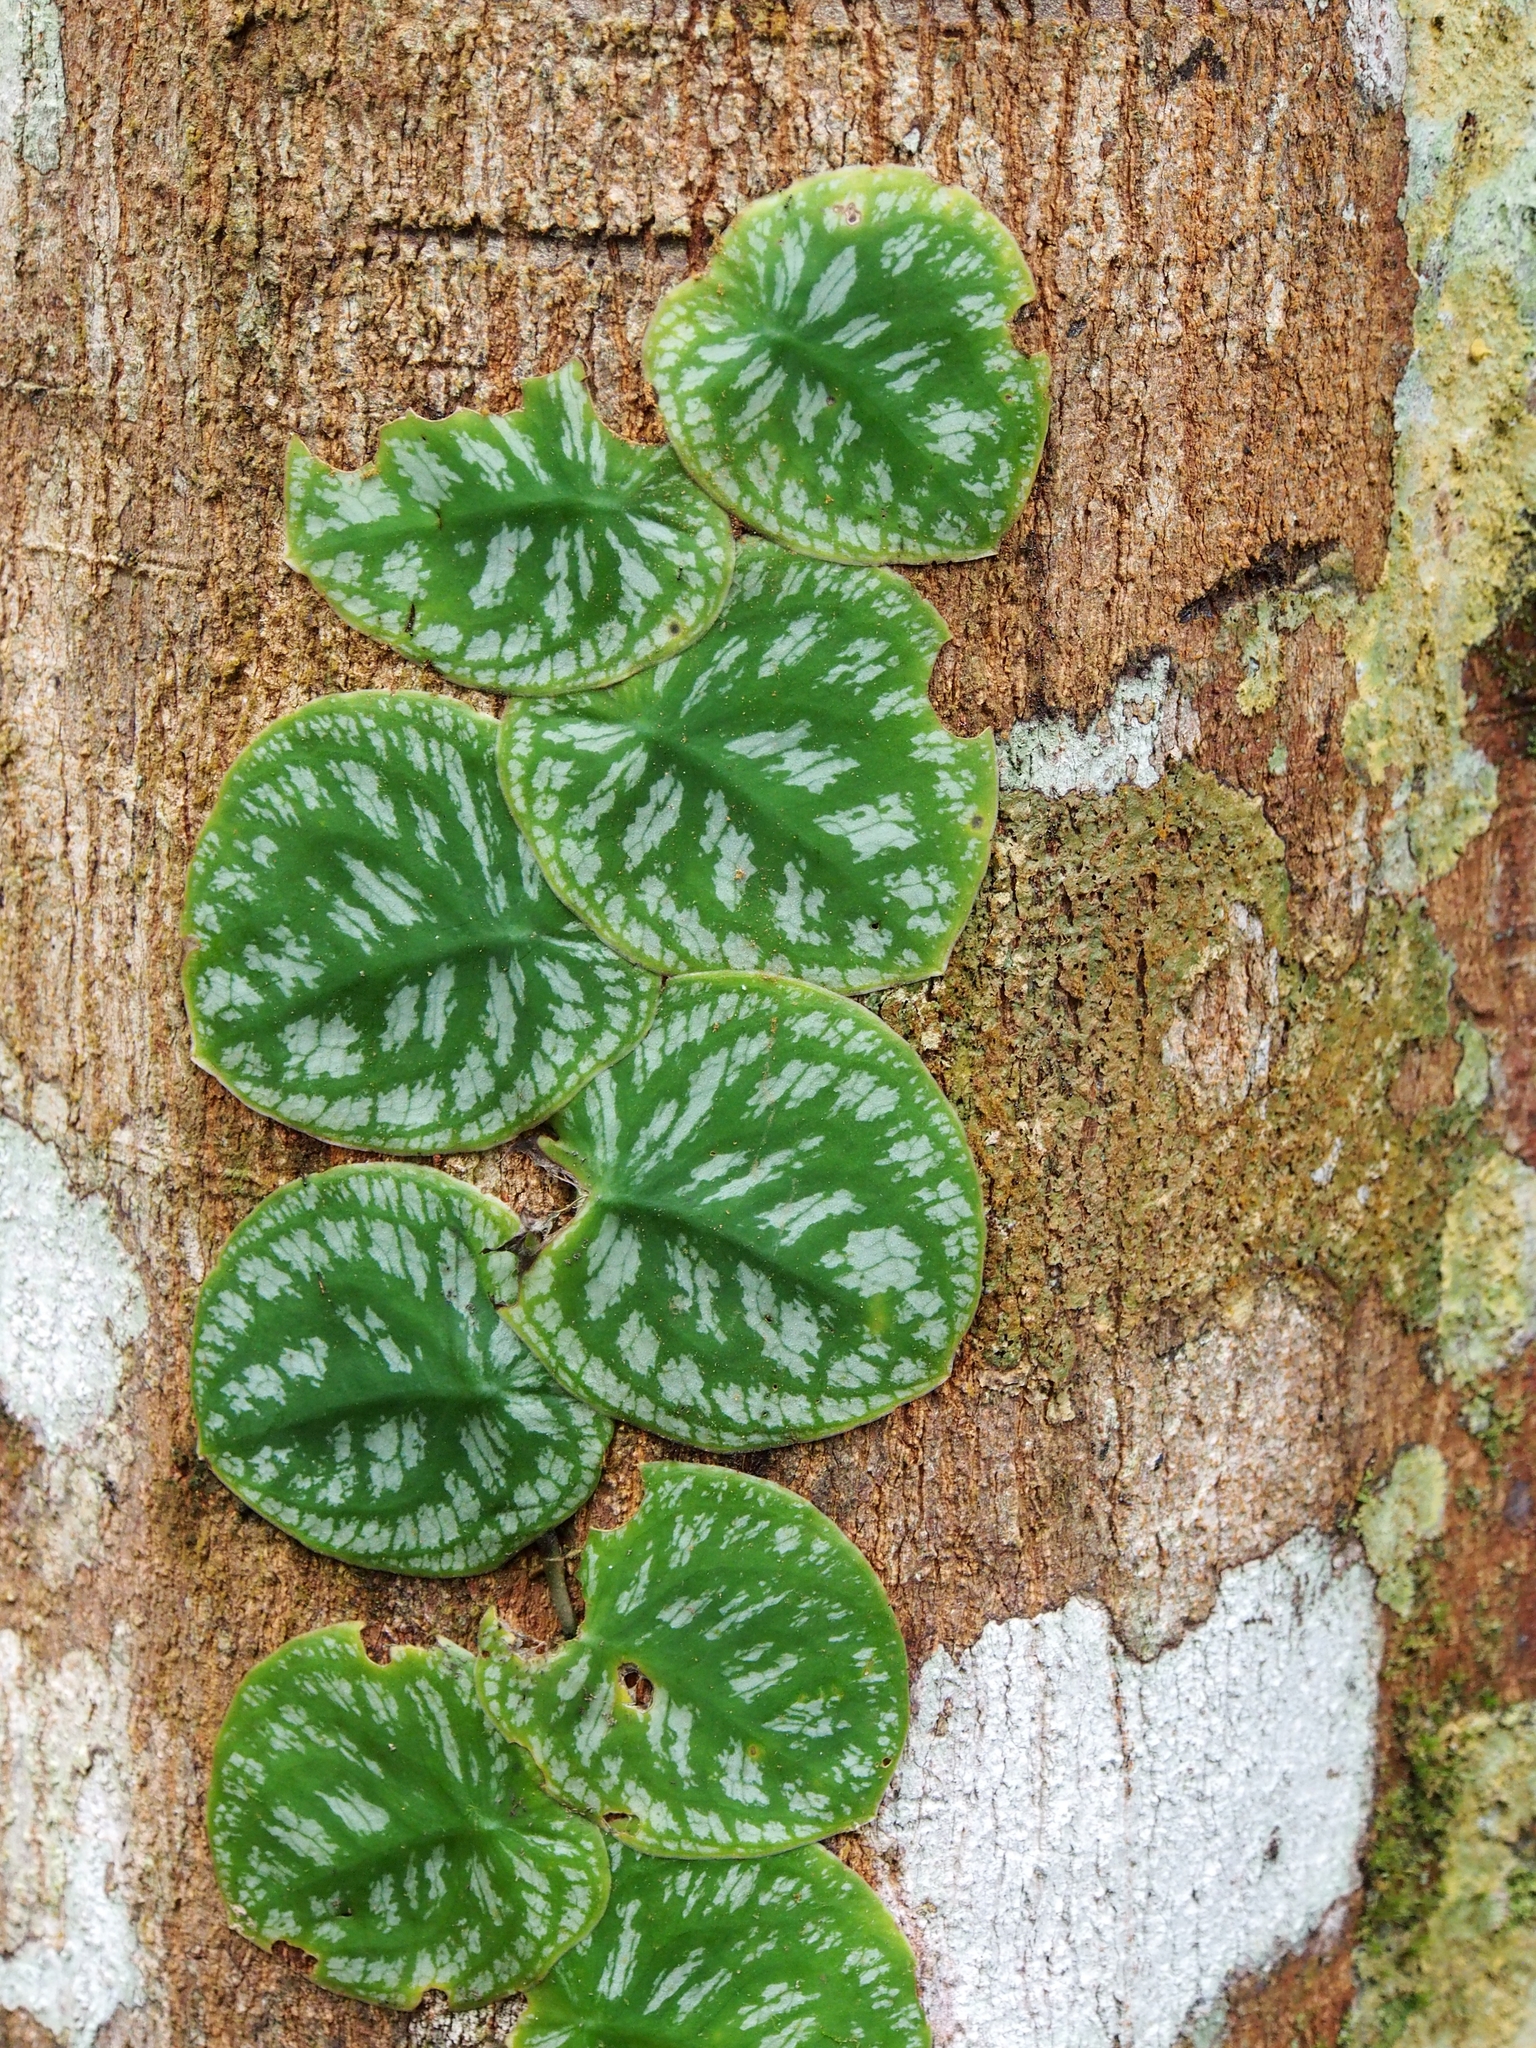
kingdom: Plantae
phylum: Tracheophyta
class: Liliopsida
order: Alismatales
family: Araceae
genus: Monstera
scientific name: Monstera tuberculata
